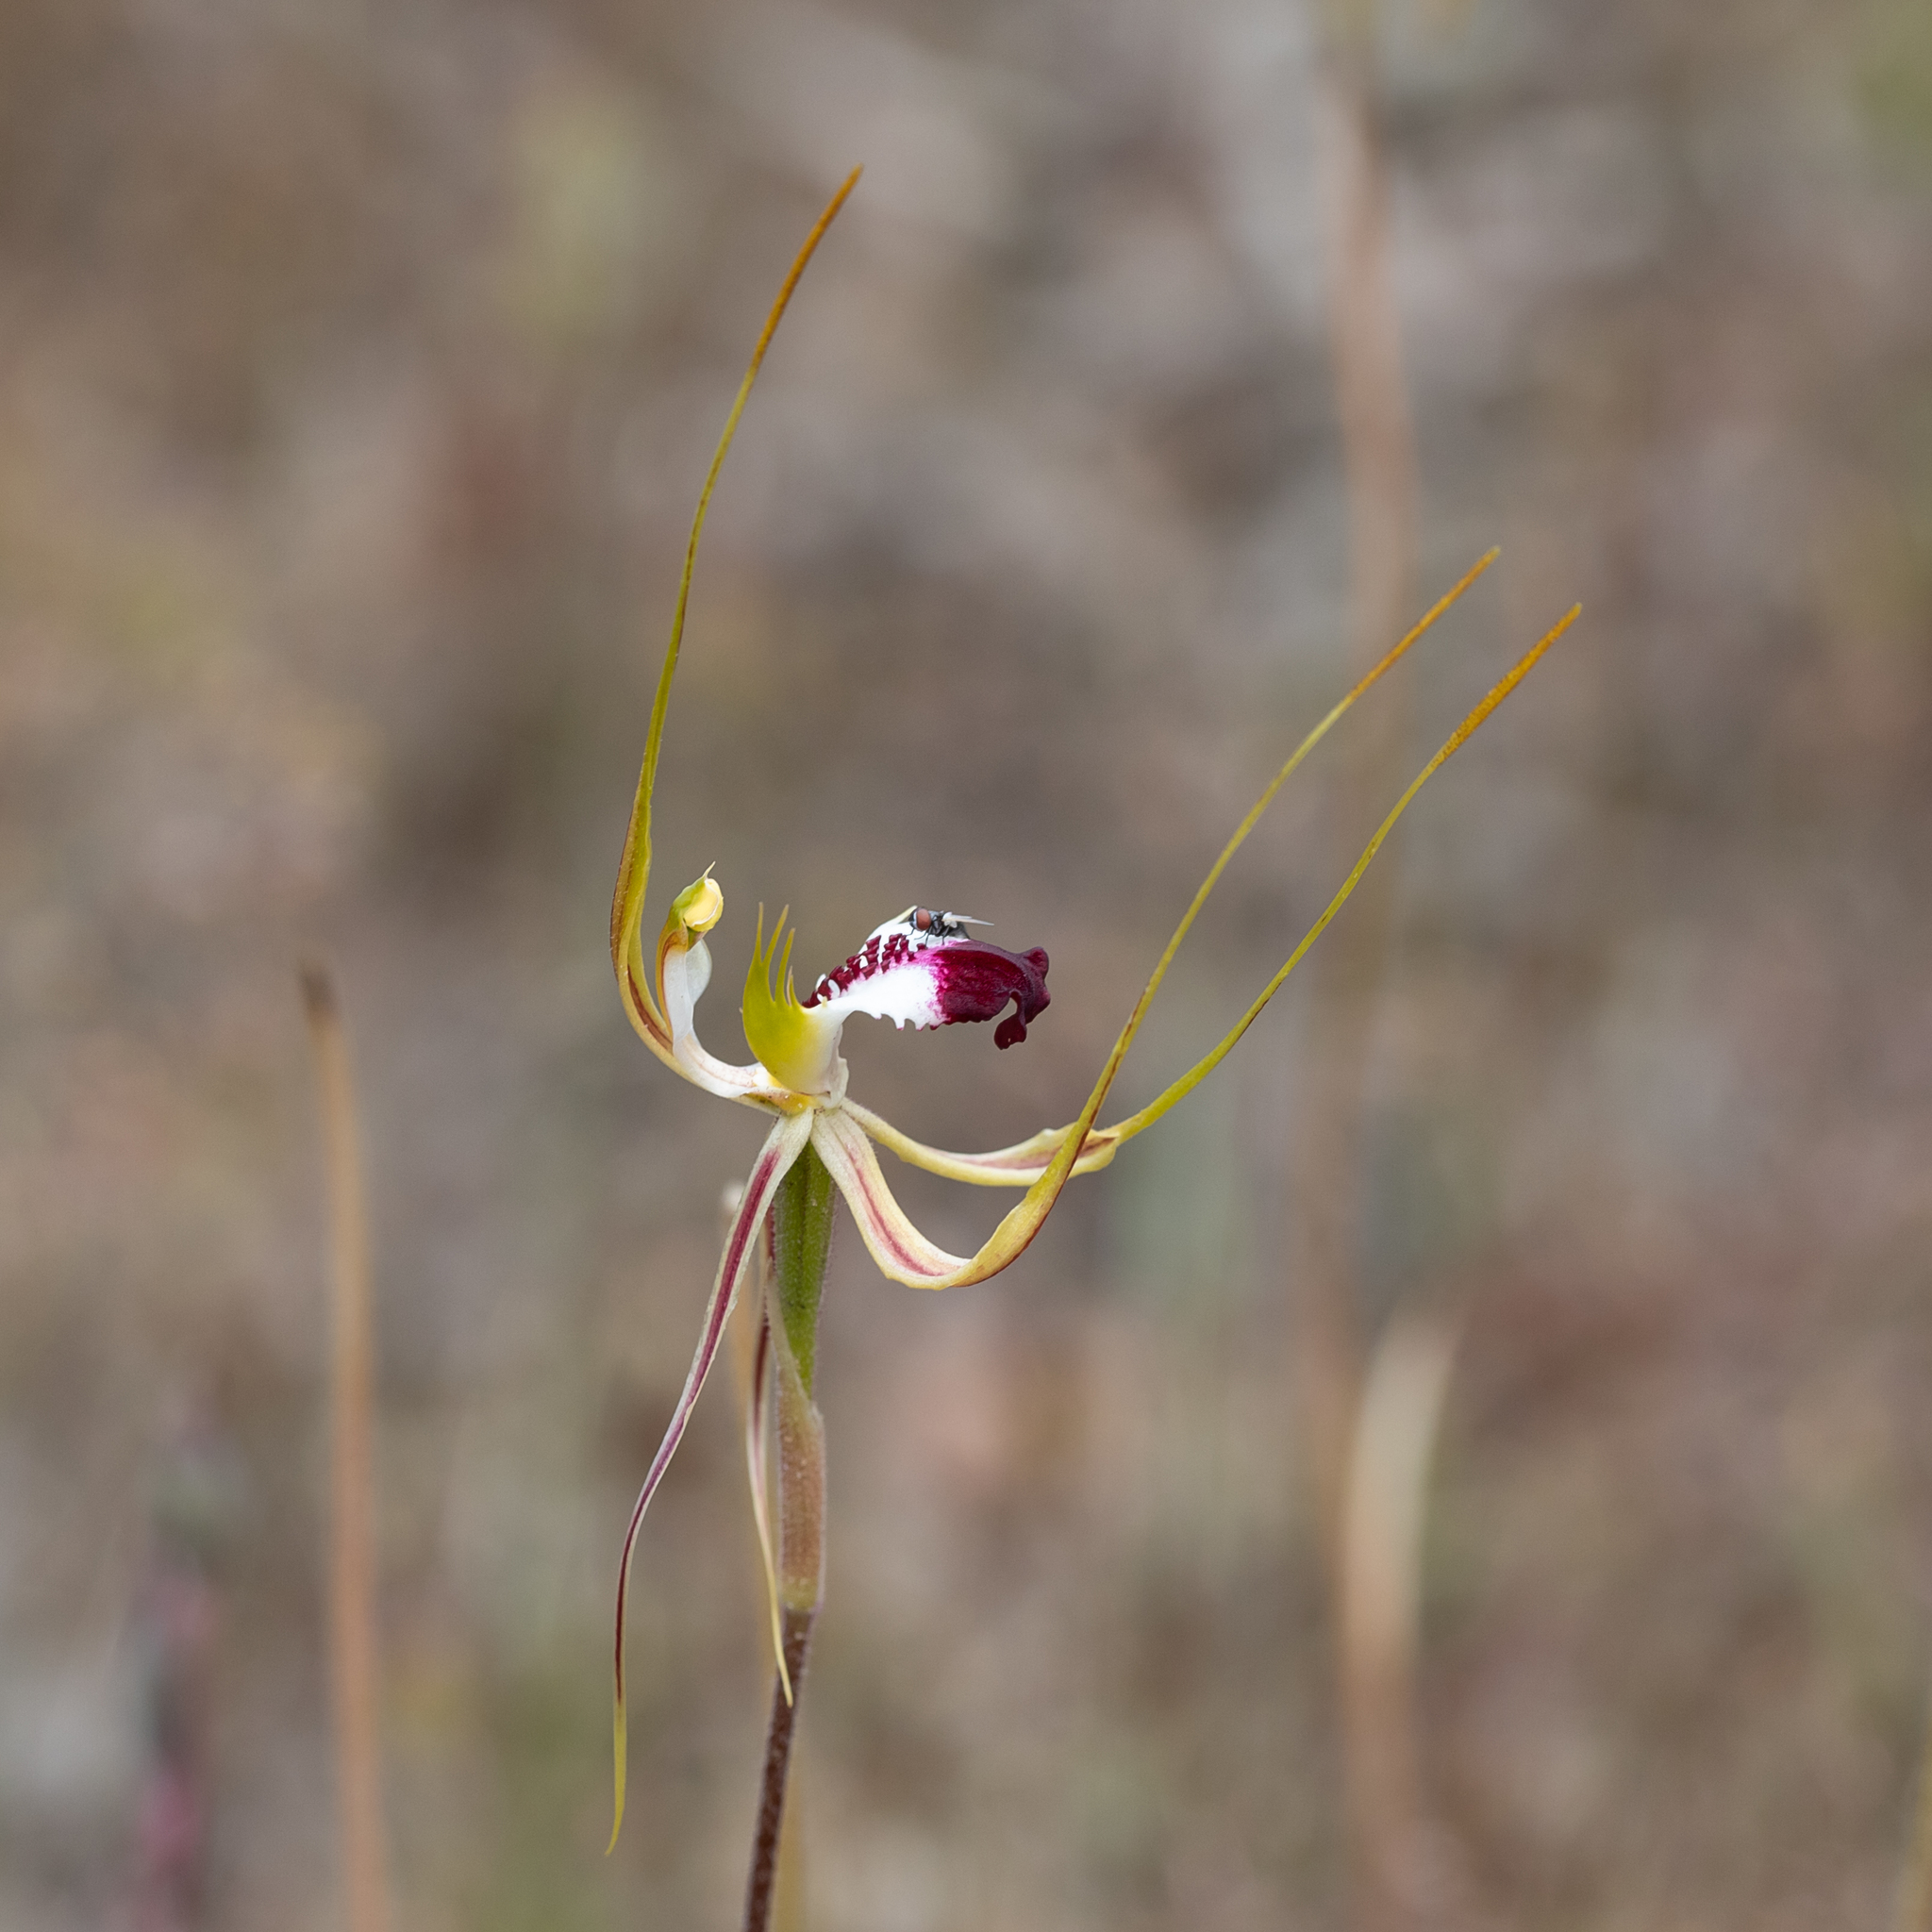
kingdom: Plantae
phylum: Tracheophyta
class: Liliopsida
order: Asparagales
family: Orchidaceae
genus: Caladenia
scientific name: Caladenia tentaculata
